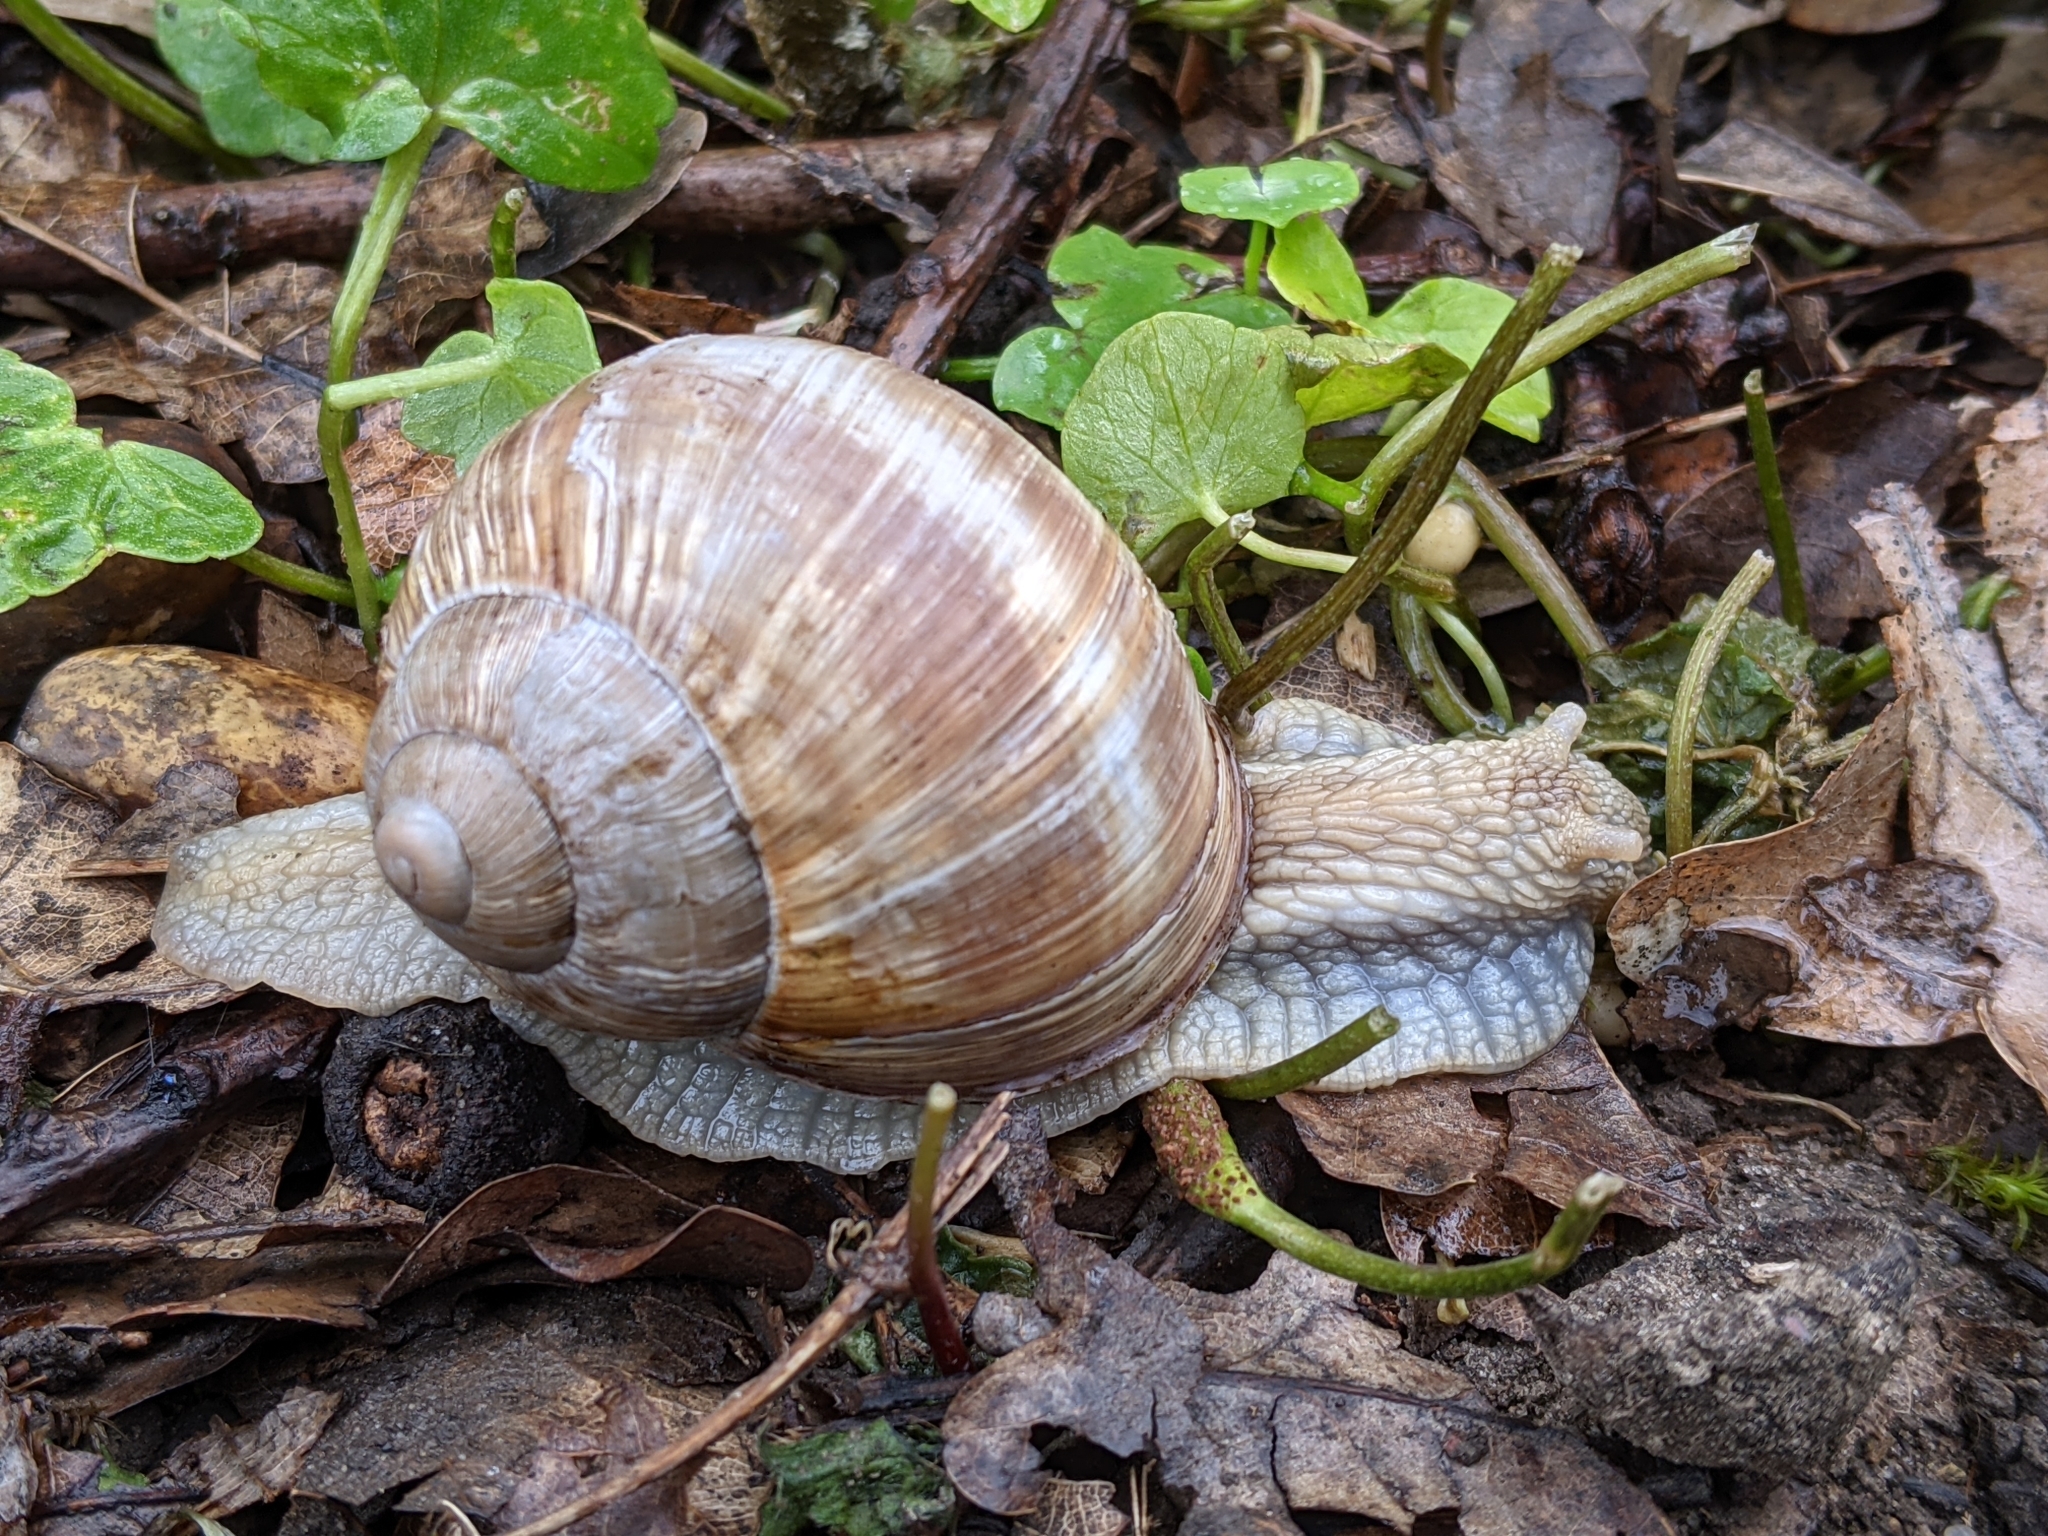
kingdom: Animalia
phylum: Mollusca
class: Gastropoda
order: Stylommatophora
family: Helicidae
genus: Helix
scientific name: Helix pomatia
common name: Roman snail
